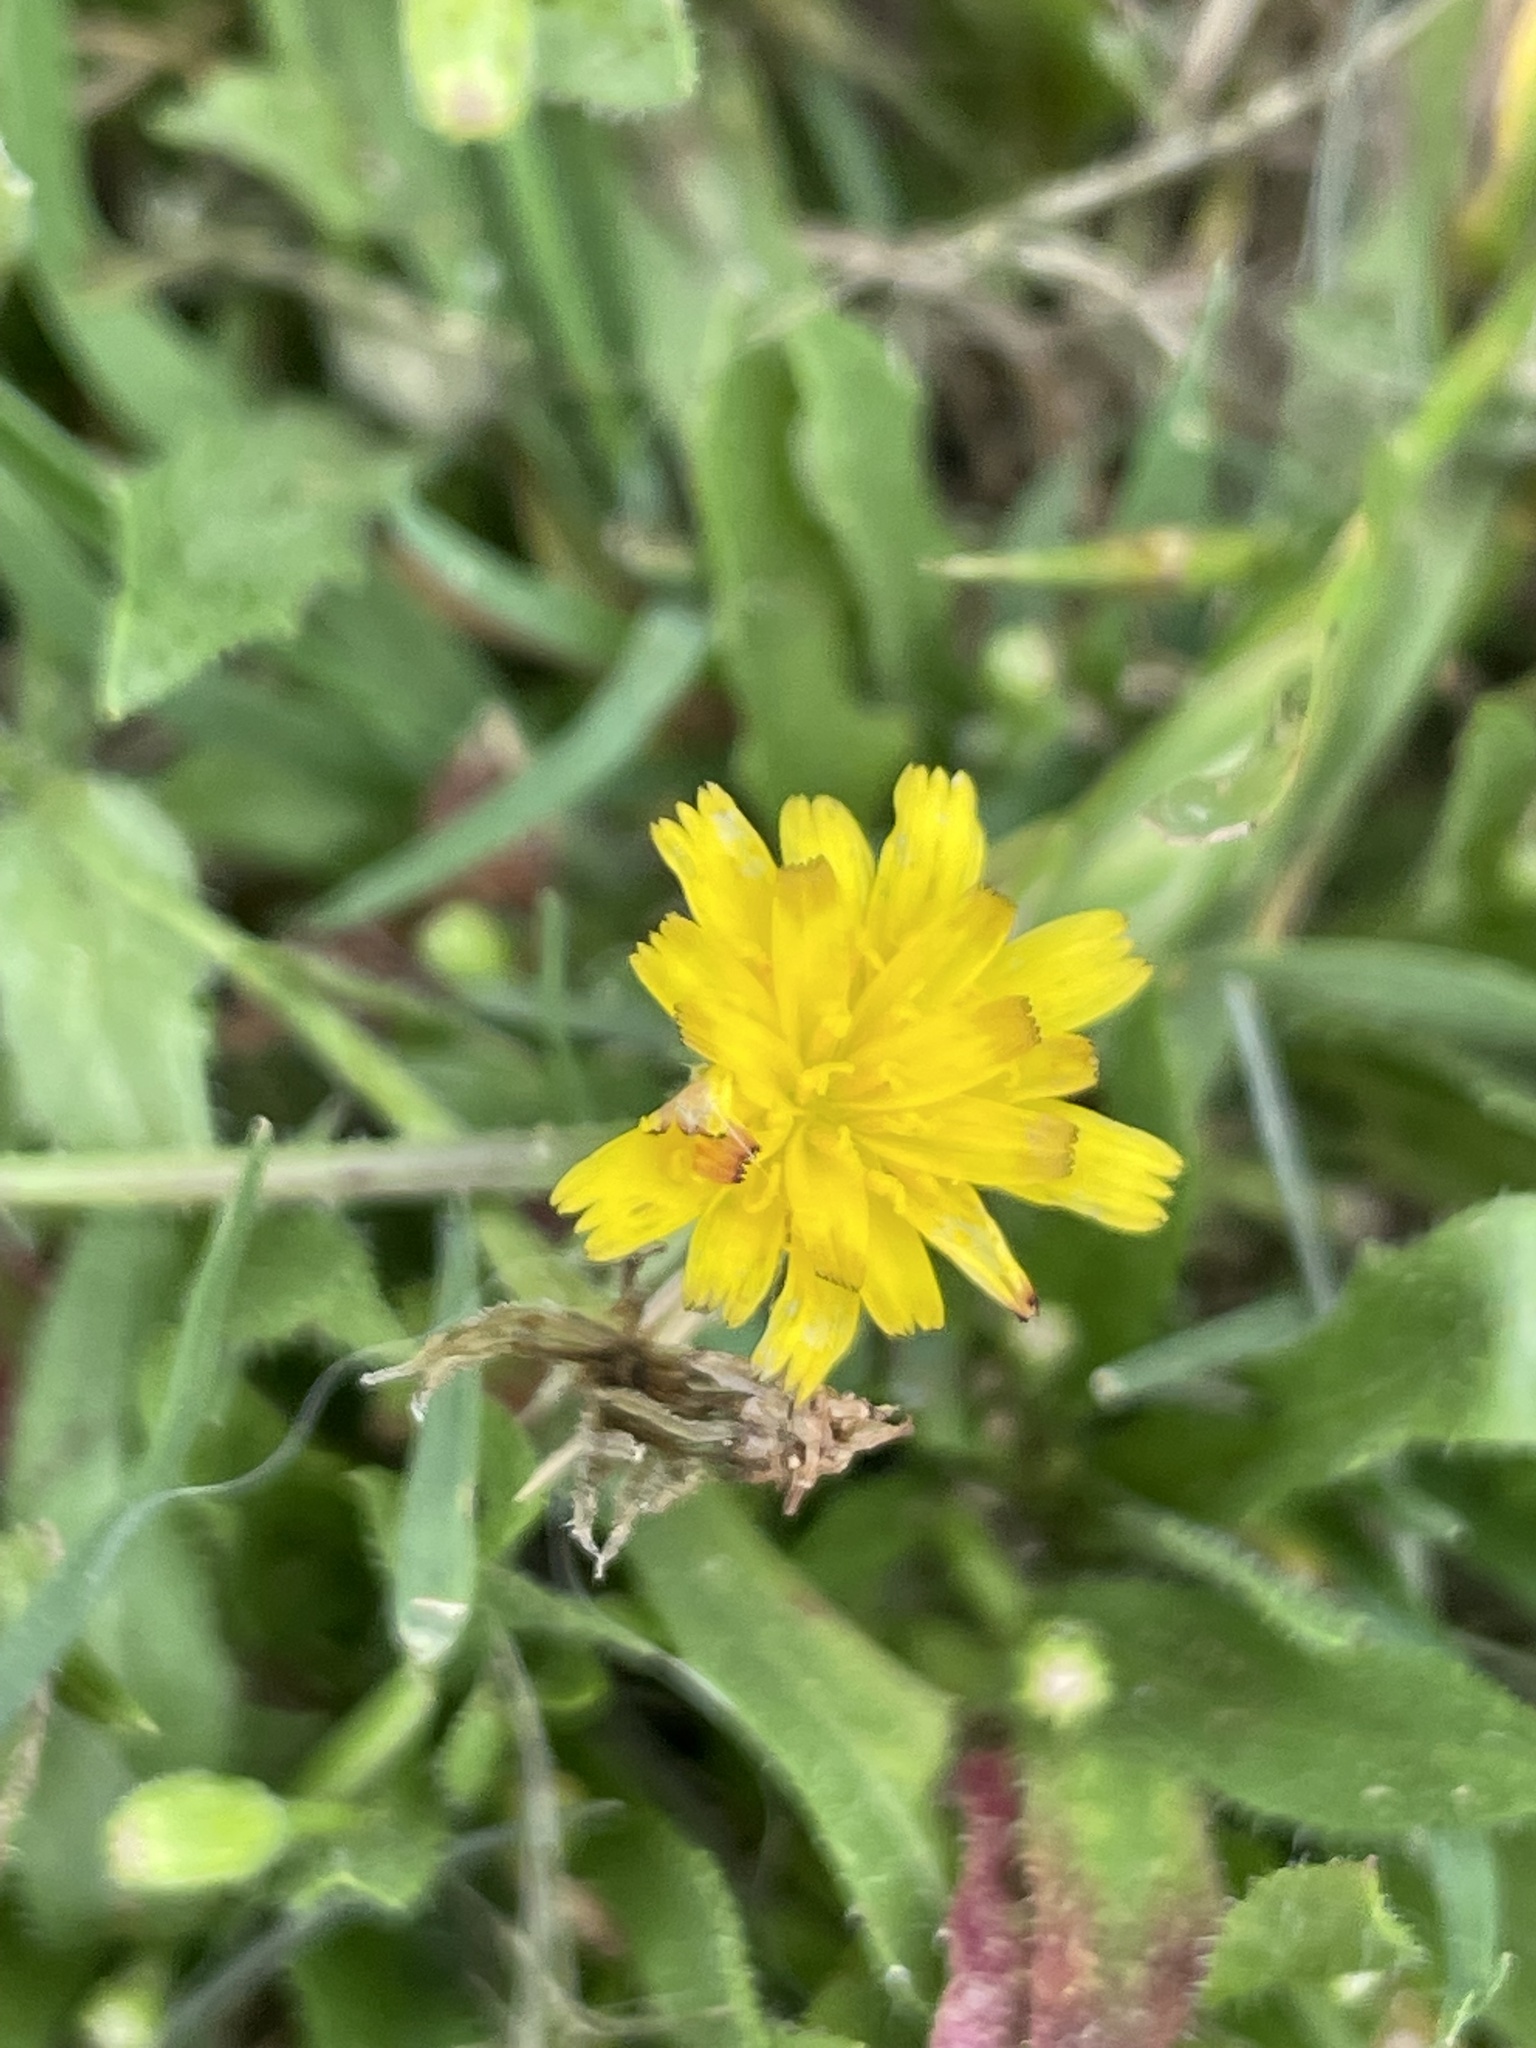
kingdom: Plantae
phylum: Tracheophyta
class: Magnoliopsida
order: Asterales
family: Asteraceae
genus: Hedypnois
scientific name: Hedypnois rhagadioloides
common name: Cretan weed
